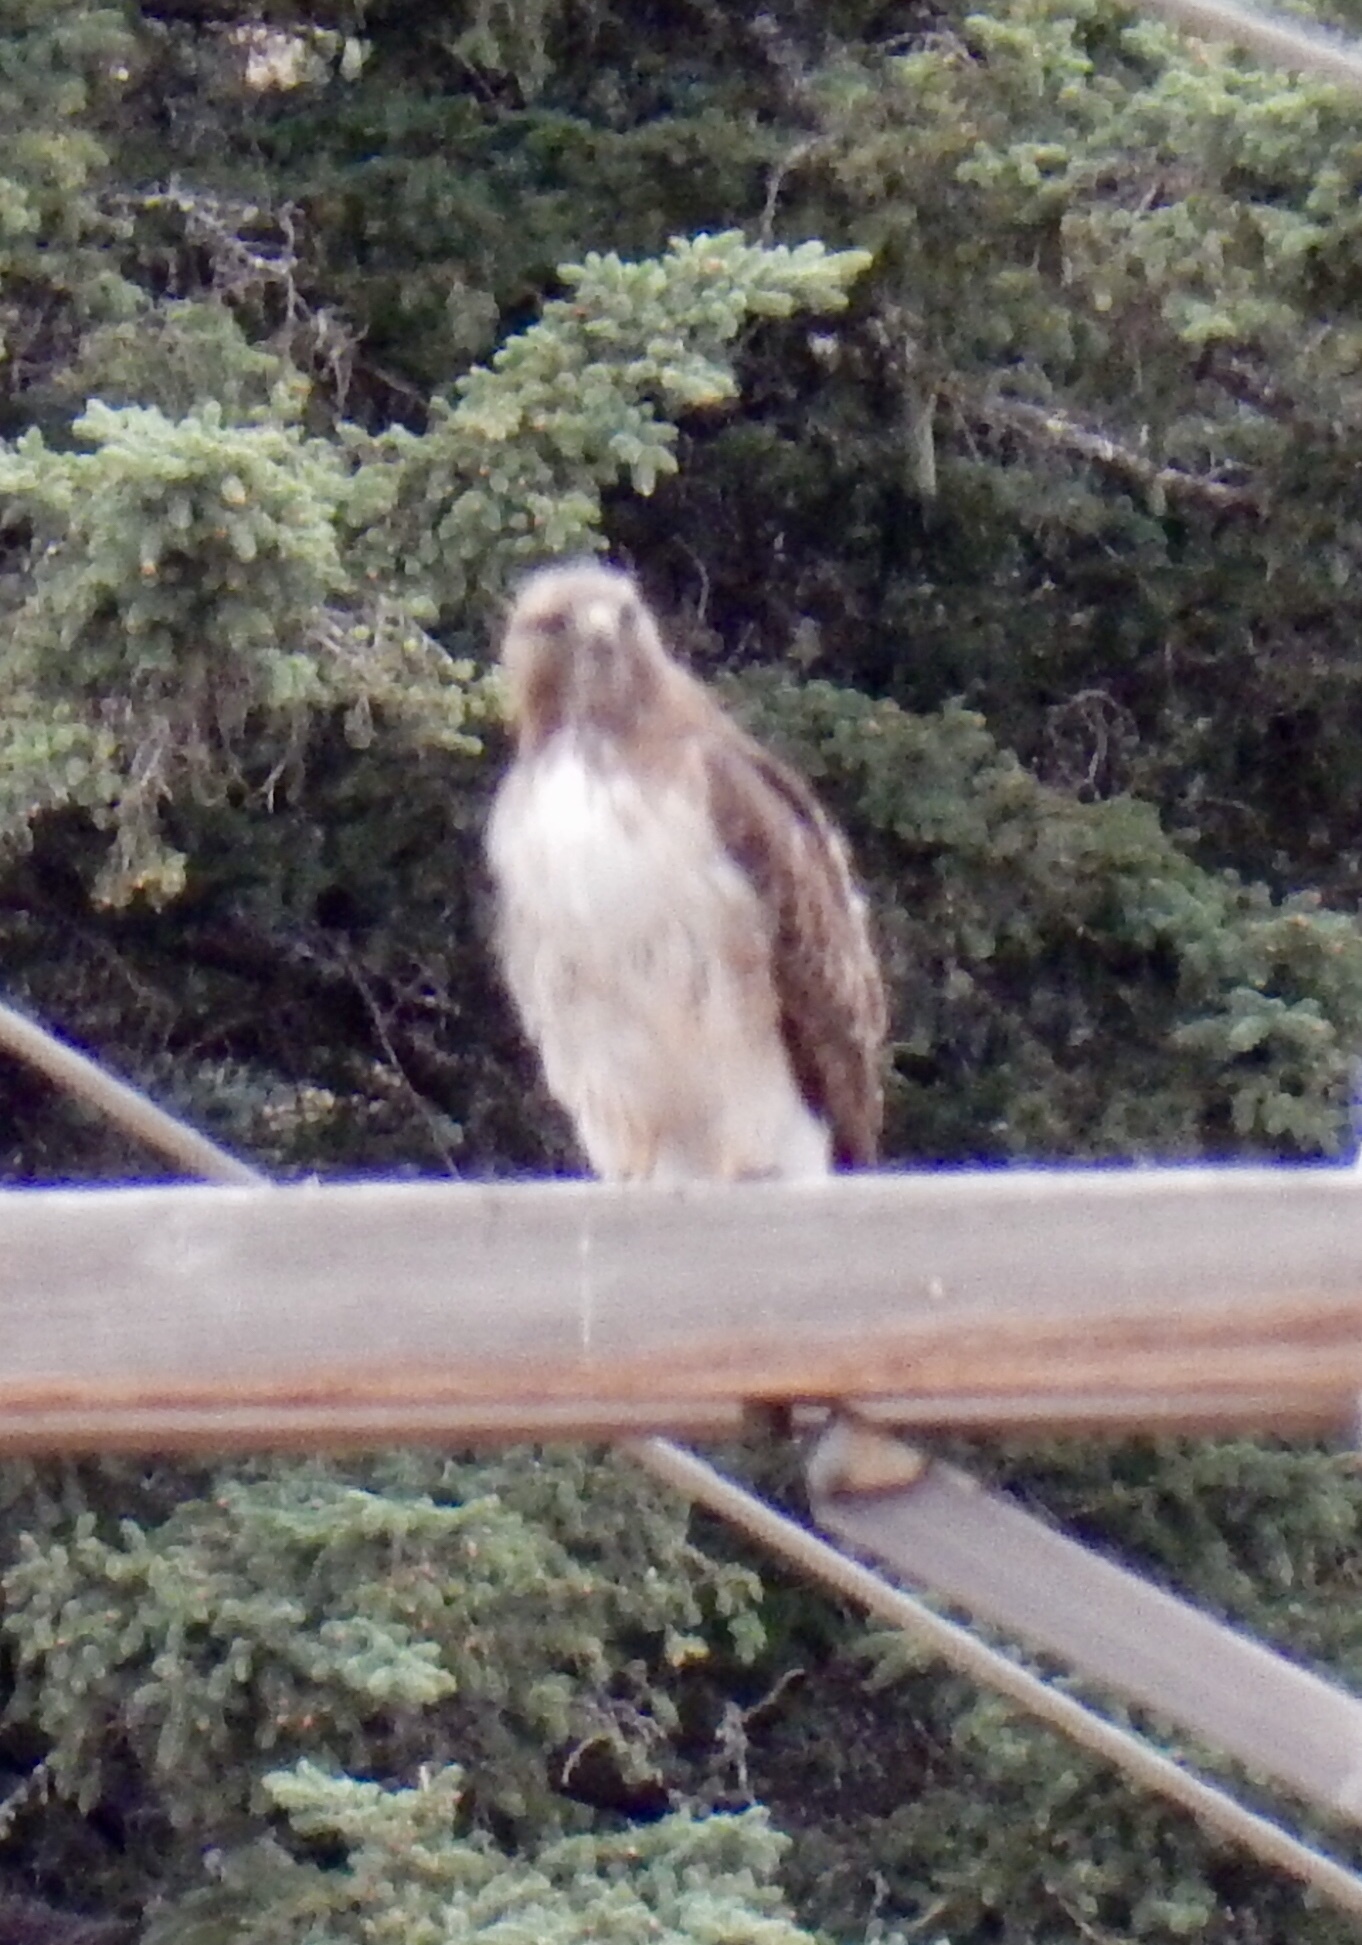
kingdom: Animalia
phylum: Chordata
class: Aves
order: Accipitriformes
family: Accipitridae
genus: Buteo
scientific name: Buteo jamaicensis
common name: Red-tailed hawk
